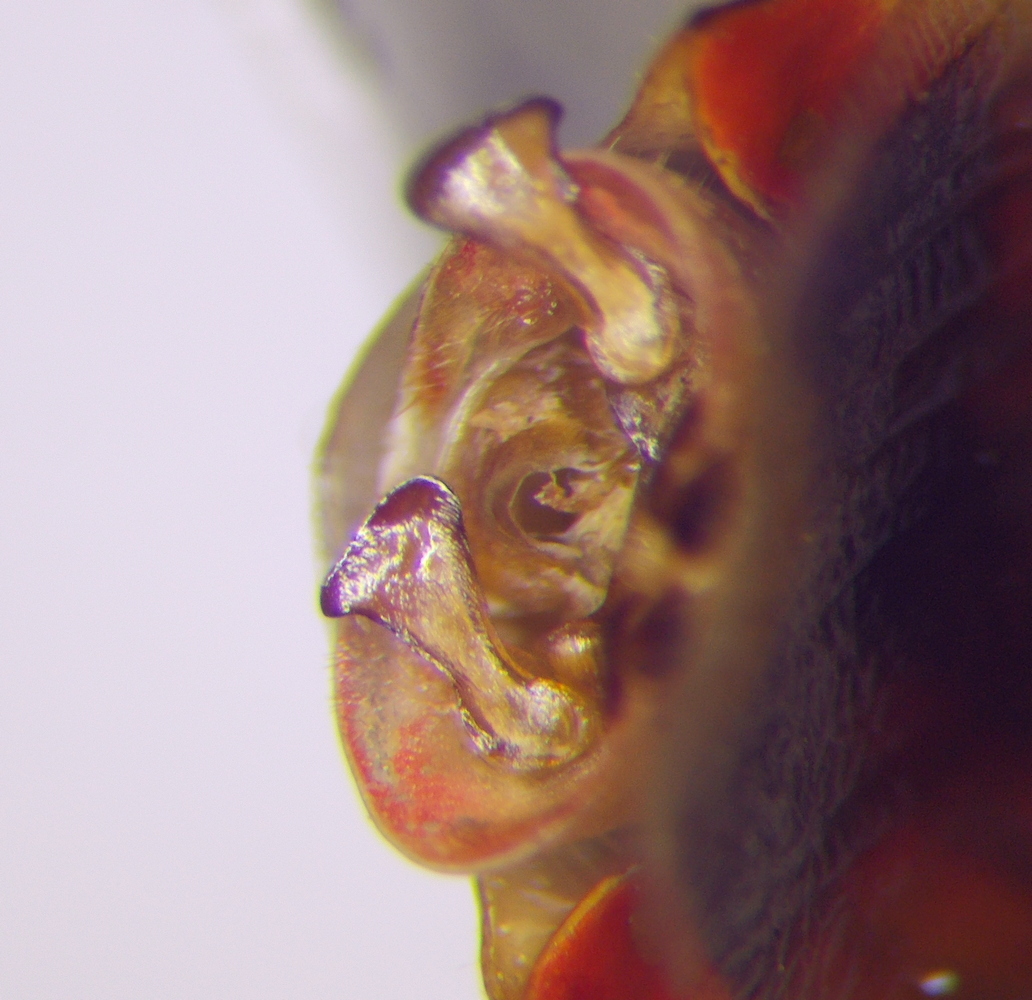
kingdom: Animalia
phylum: Arthropoda
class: Insecta
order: Hemiptera
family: Acanthosomatidae
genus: Elasmostethus
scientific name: Elasmostethus humeralis
